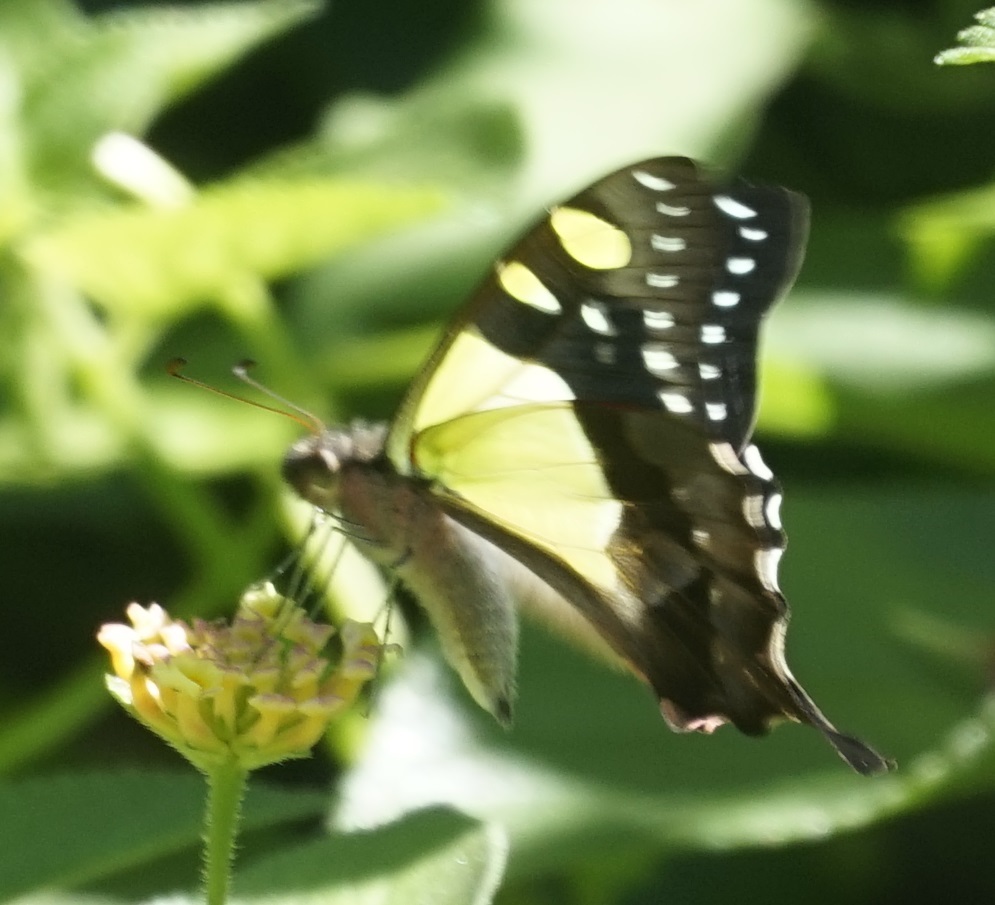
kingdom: Animalia
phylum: Arthropoda
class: Insecta
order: Lepidoptera
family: Papilionidae
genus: Graphium
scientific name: Graphium macleayanus
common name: Macleay's swallowtail
